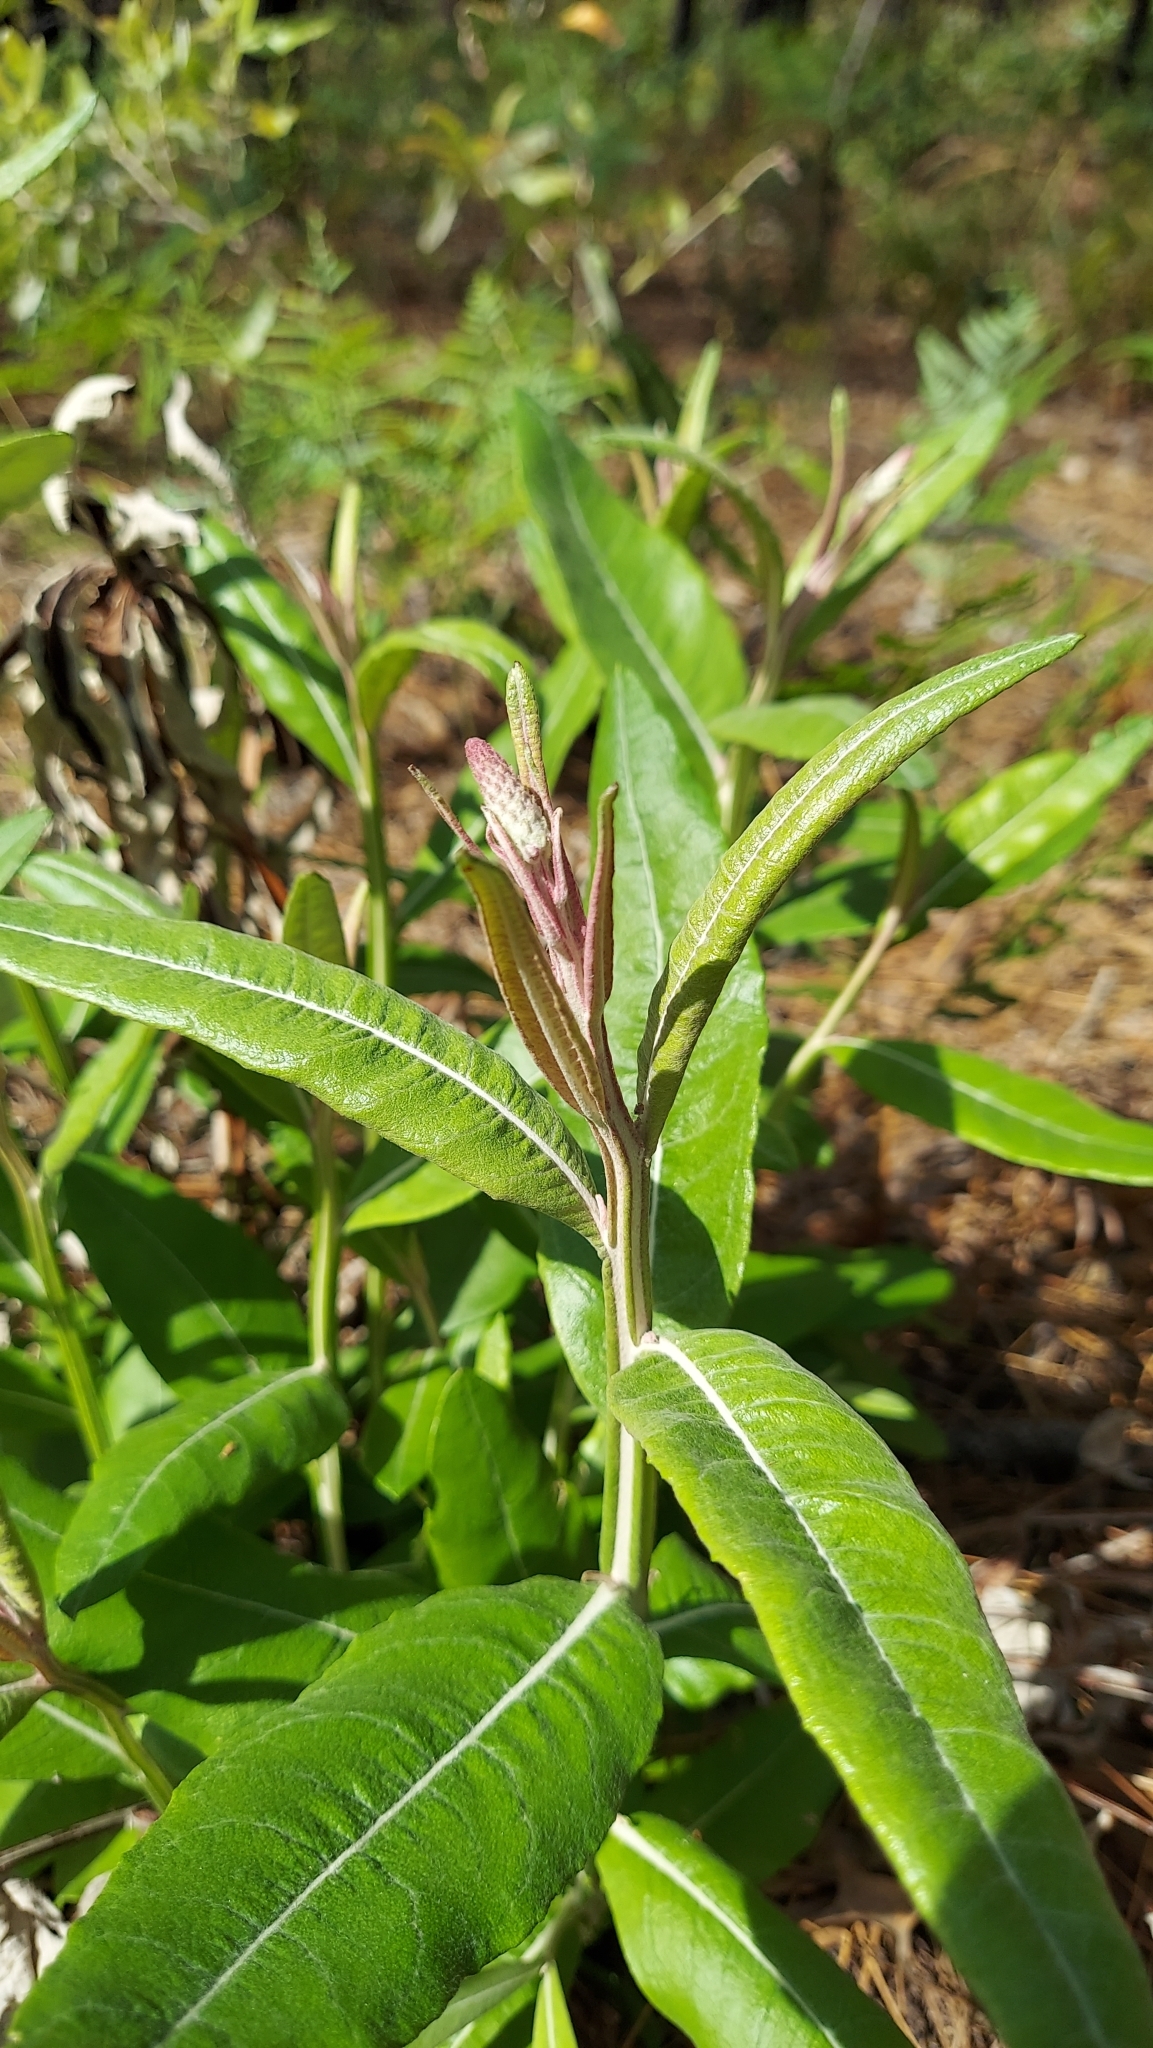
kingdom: Plantae
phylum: Tracheophyta
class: Magnoliopsida
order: Asterales
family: Asteraceae
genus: Pterocaulon
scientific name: Pterocaulon pycnostachyum
